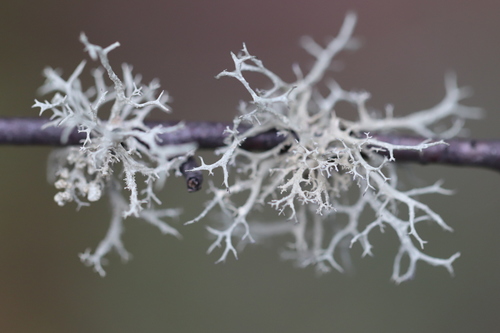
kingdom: Fungi
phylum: Ascomycota
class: Lecanoromycetes
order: Lecanorales
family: Parmeliaceae
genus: Evernia
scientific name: Evernia mesomorpha
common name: Boreal oak moss lichen
